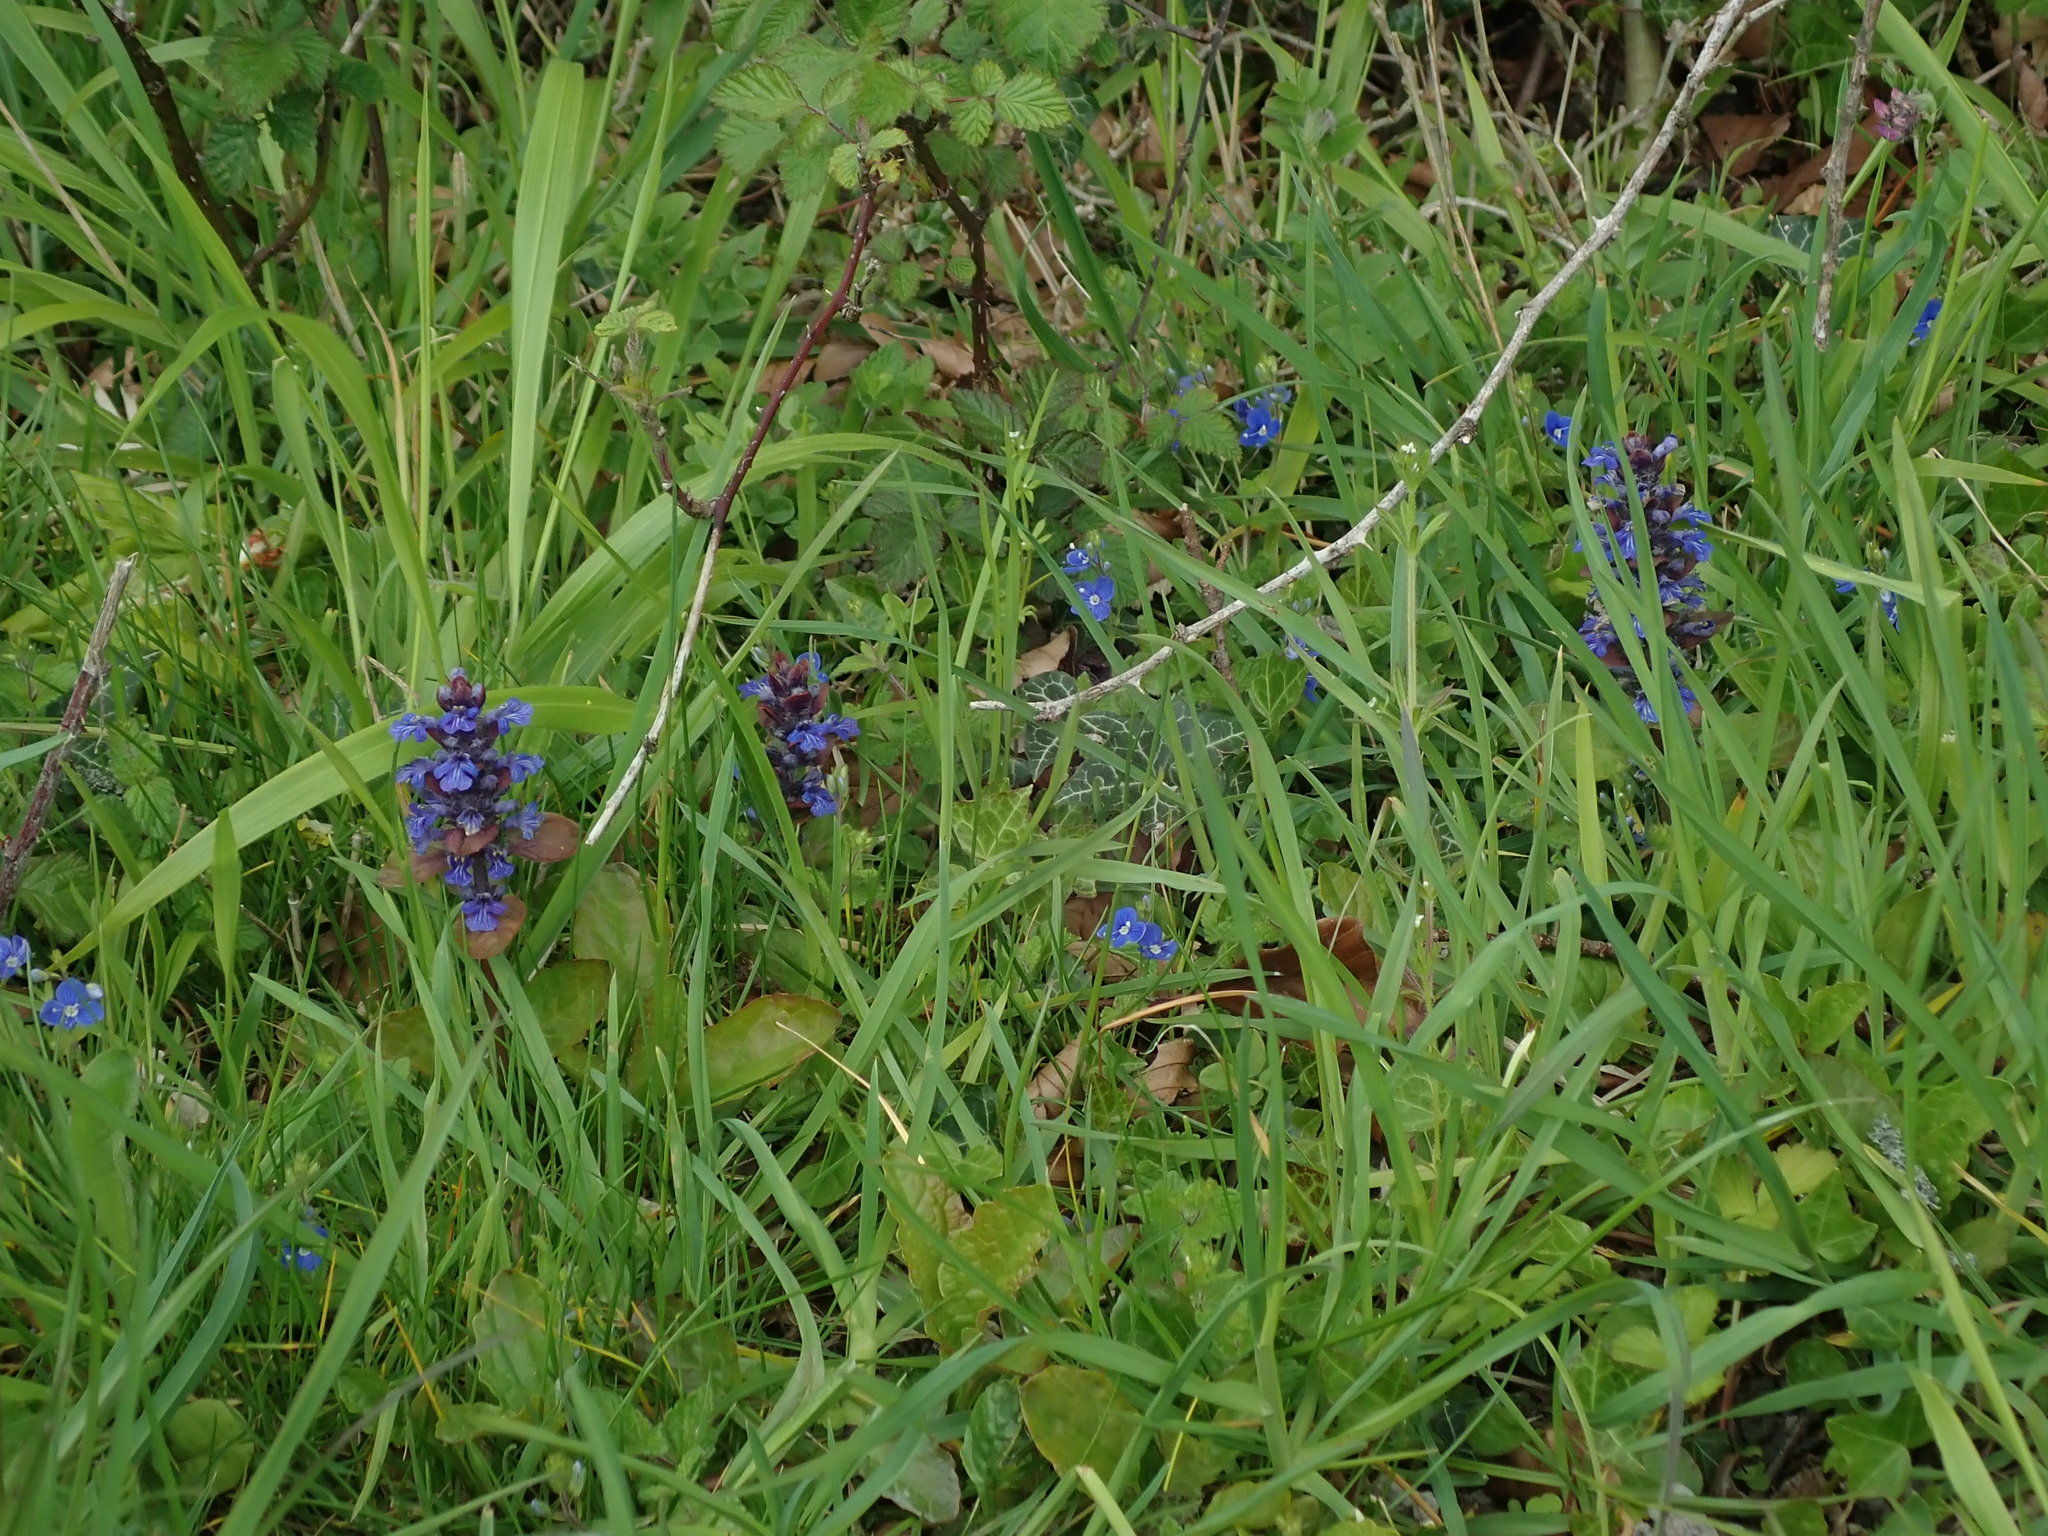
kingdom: Plantae
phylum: Tracheophyta
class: Magnoliopsida
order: Lamiales
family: Lamiaceae
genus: Ajuga
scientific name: Ajuga reptans
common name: Bugle
